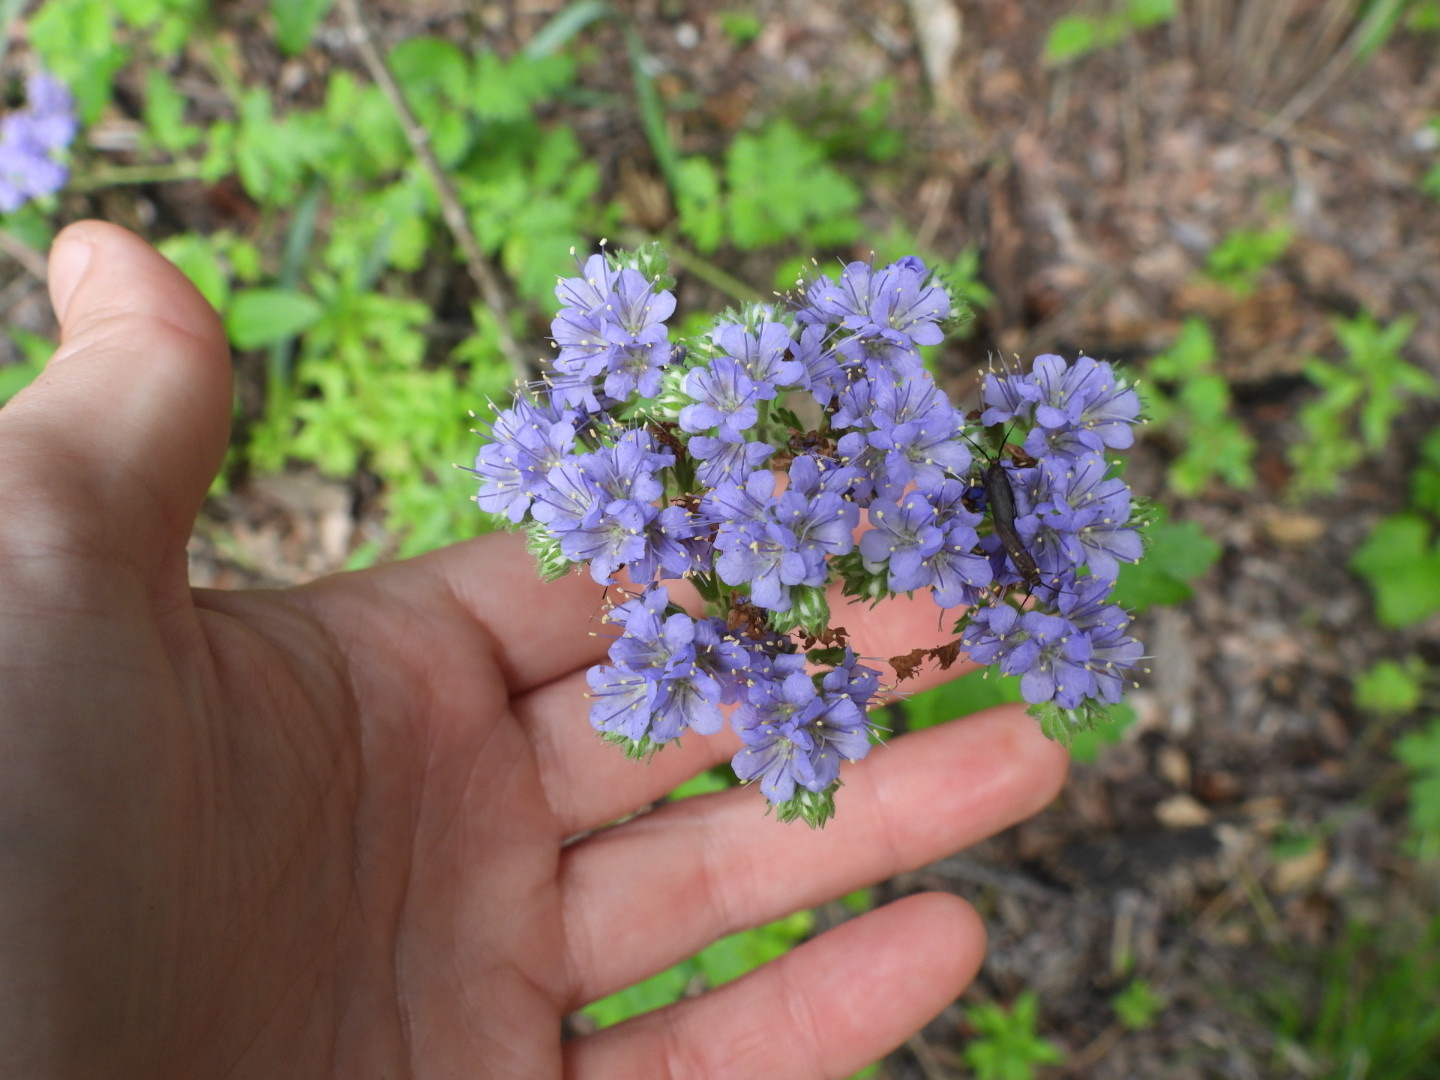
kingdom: Plantae
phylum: Tracheophyta
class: Magnoliopsida
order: Boraginales
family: Hydrophyllaceae
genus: Phacelia
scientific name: Phacelia congesta
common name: Blue curls
